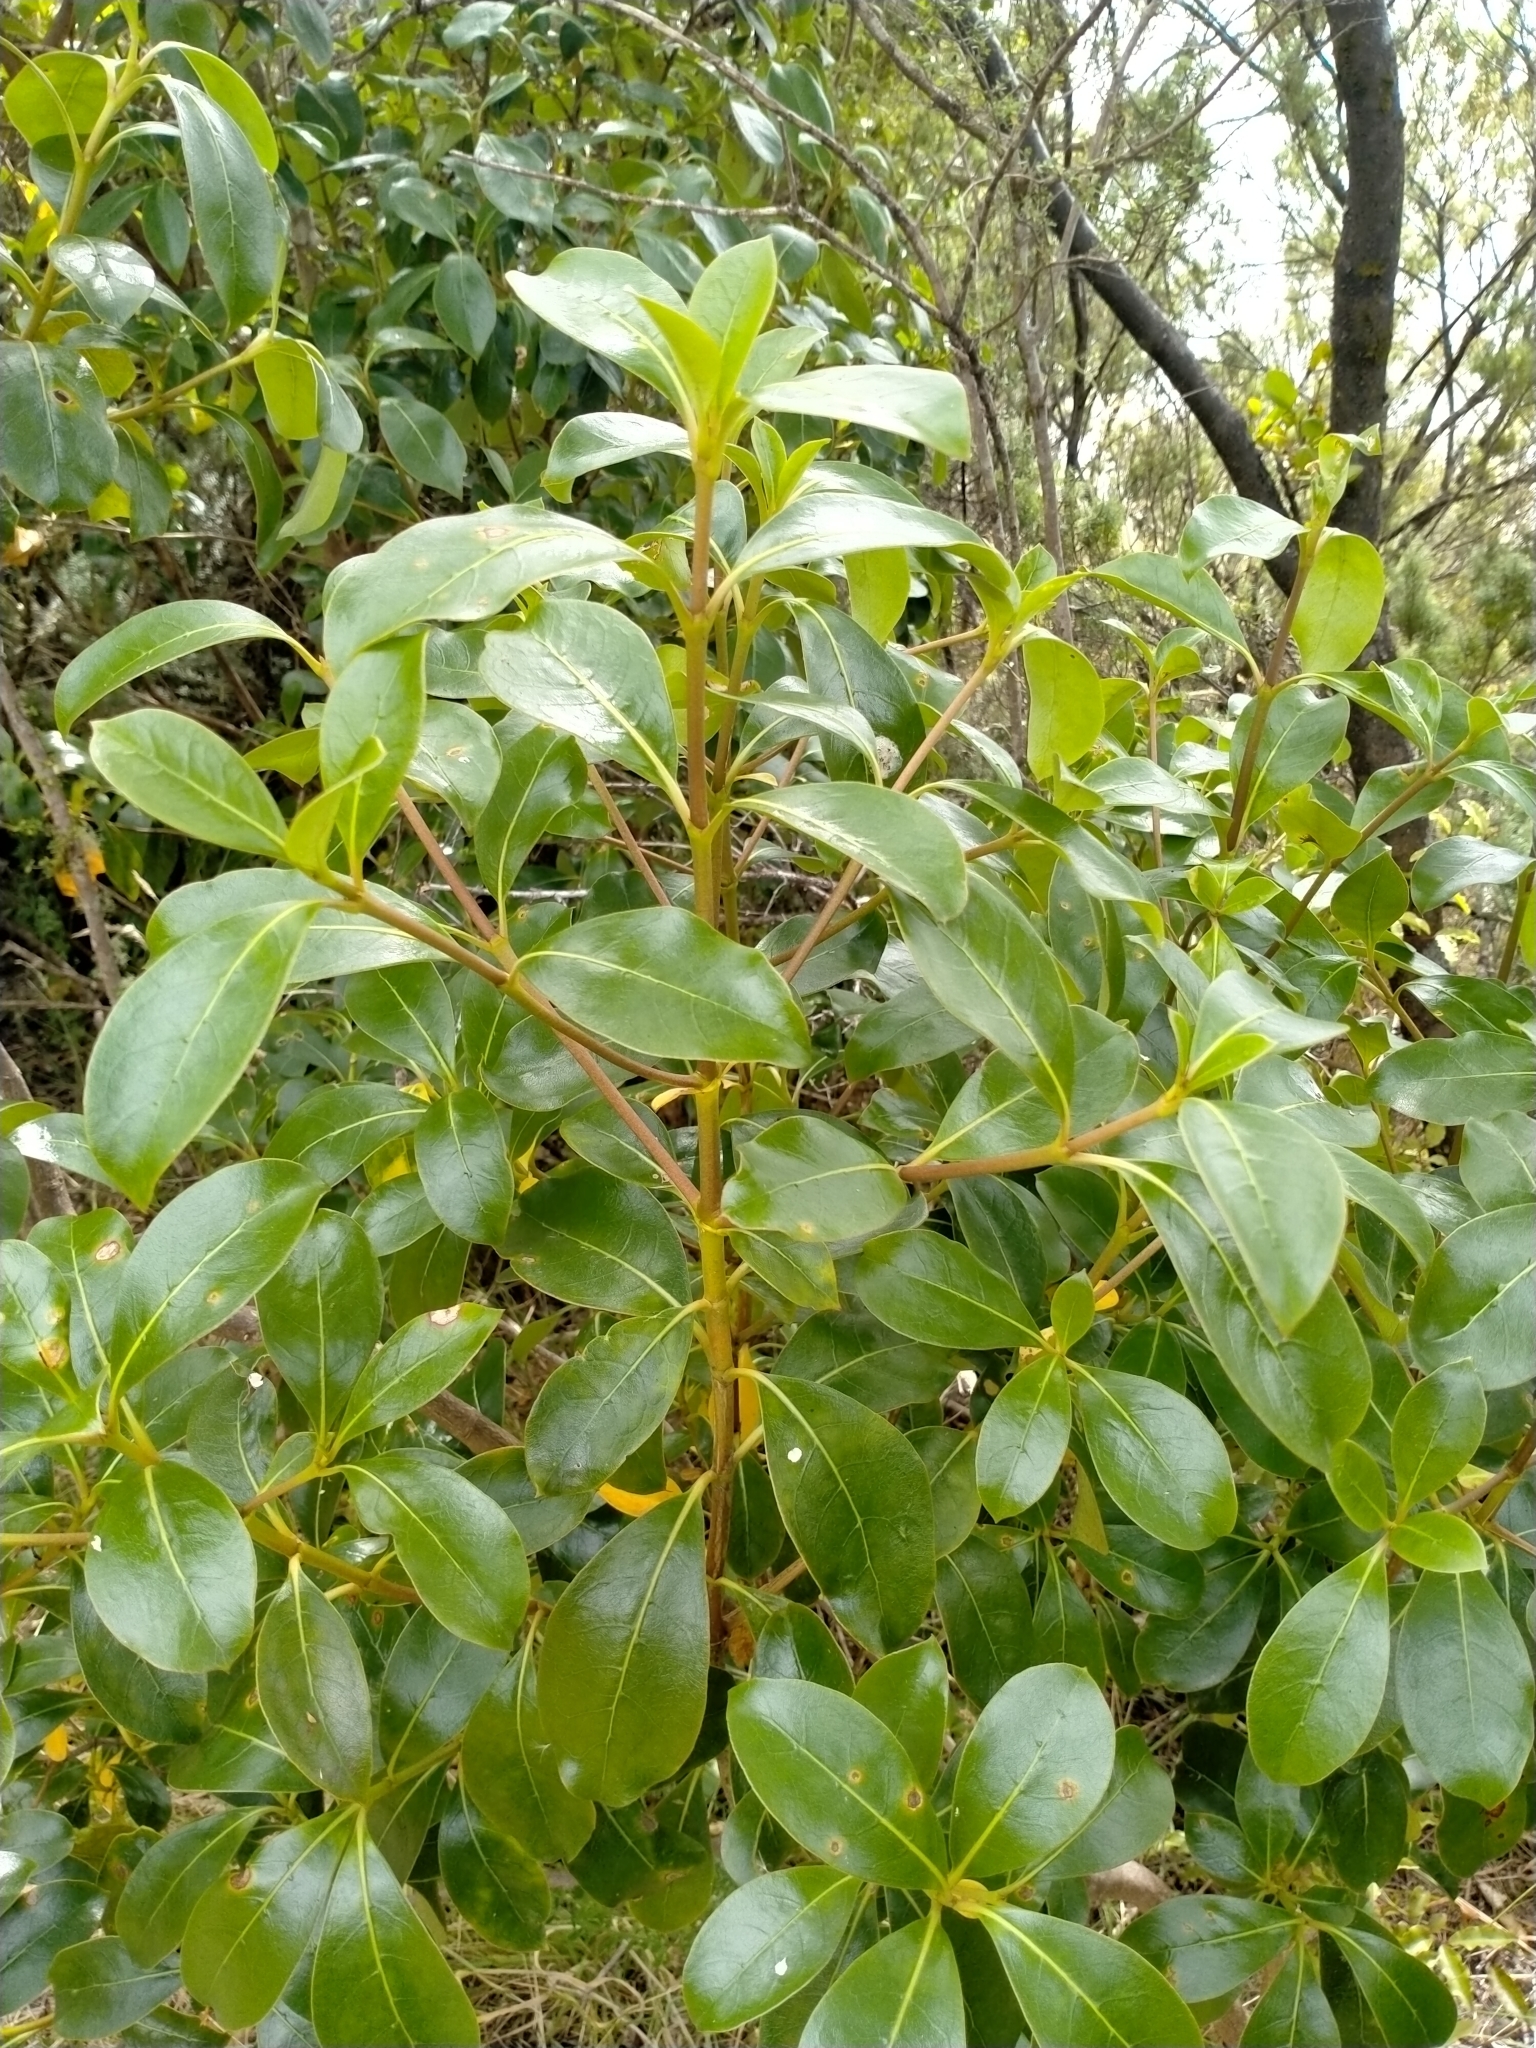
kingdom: Plantae
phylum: Tracheophyta
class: Magnoliopsida
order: Gentianales
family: Rubiaceae
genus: Coprosma
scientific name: Coprosma lucida
